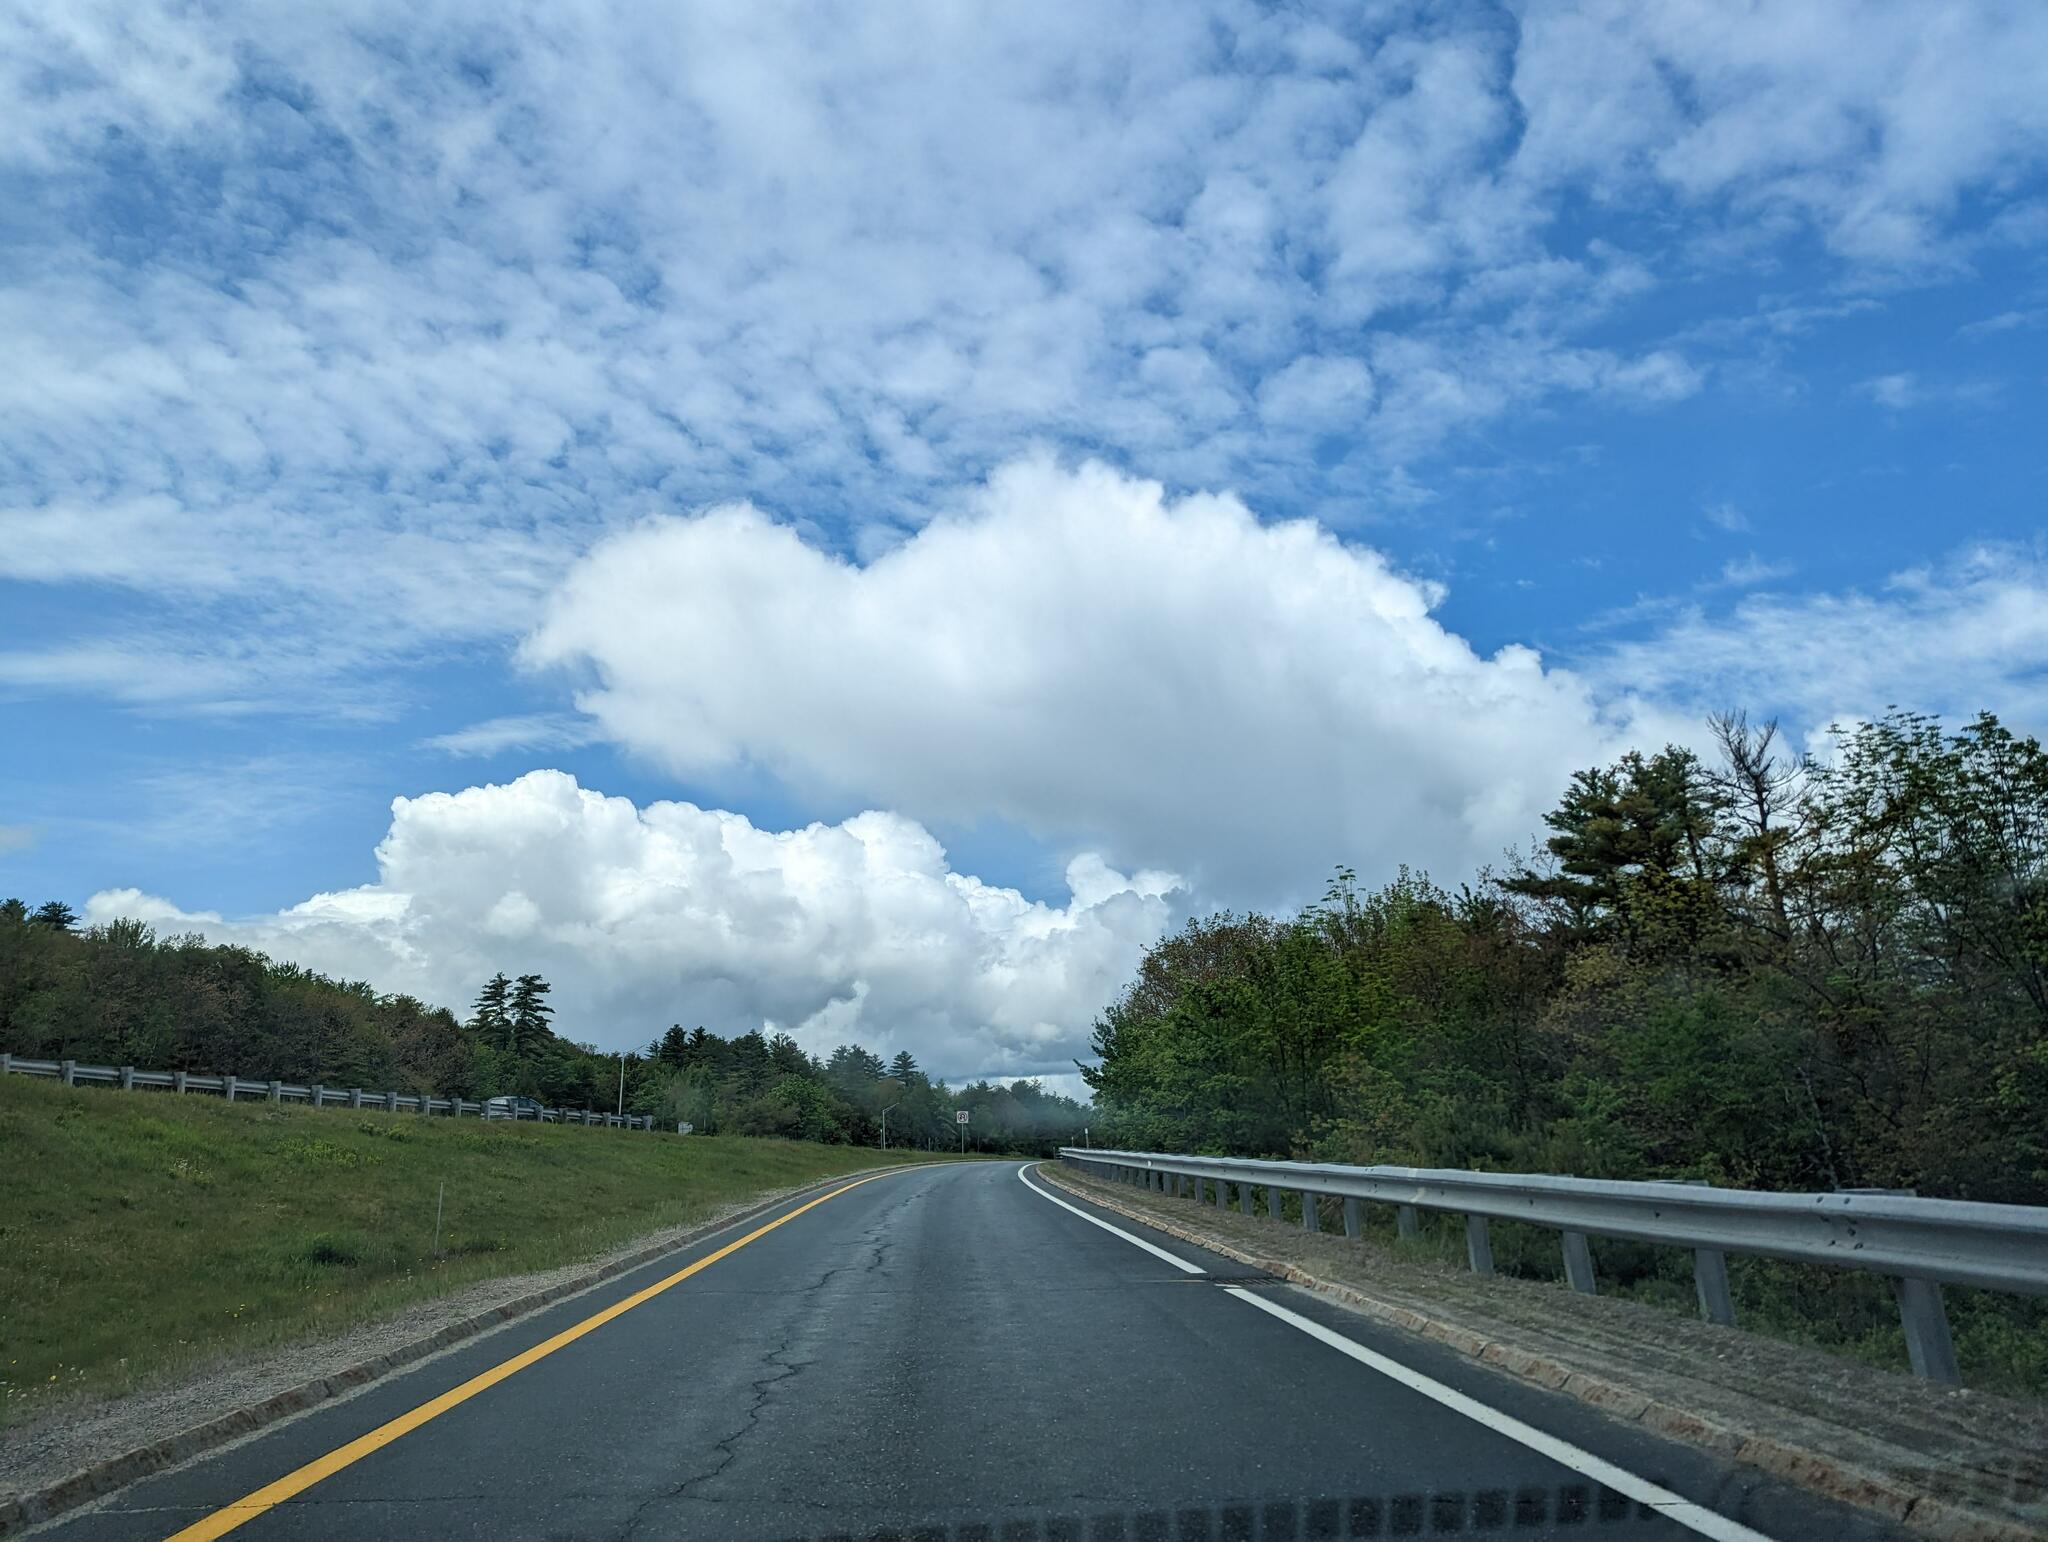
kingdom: Plantae
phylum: Tracheophyta
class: Pinopsida
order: Pinales
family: Pinaceae
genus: Pinus
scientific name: Pinus strobus
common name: Weymouth pine
